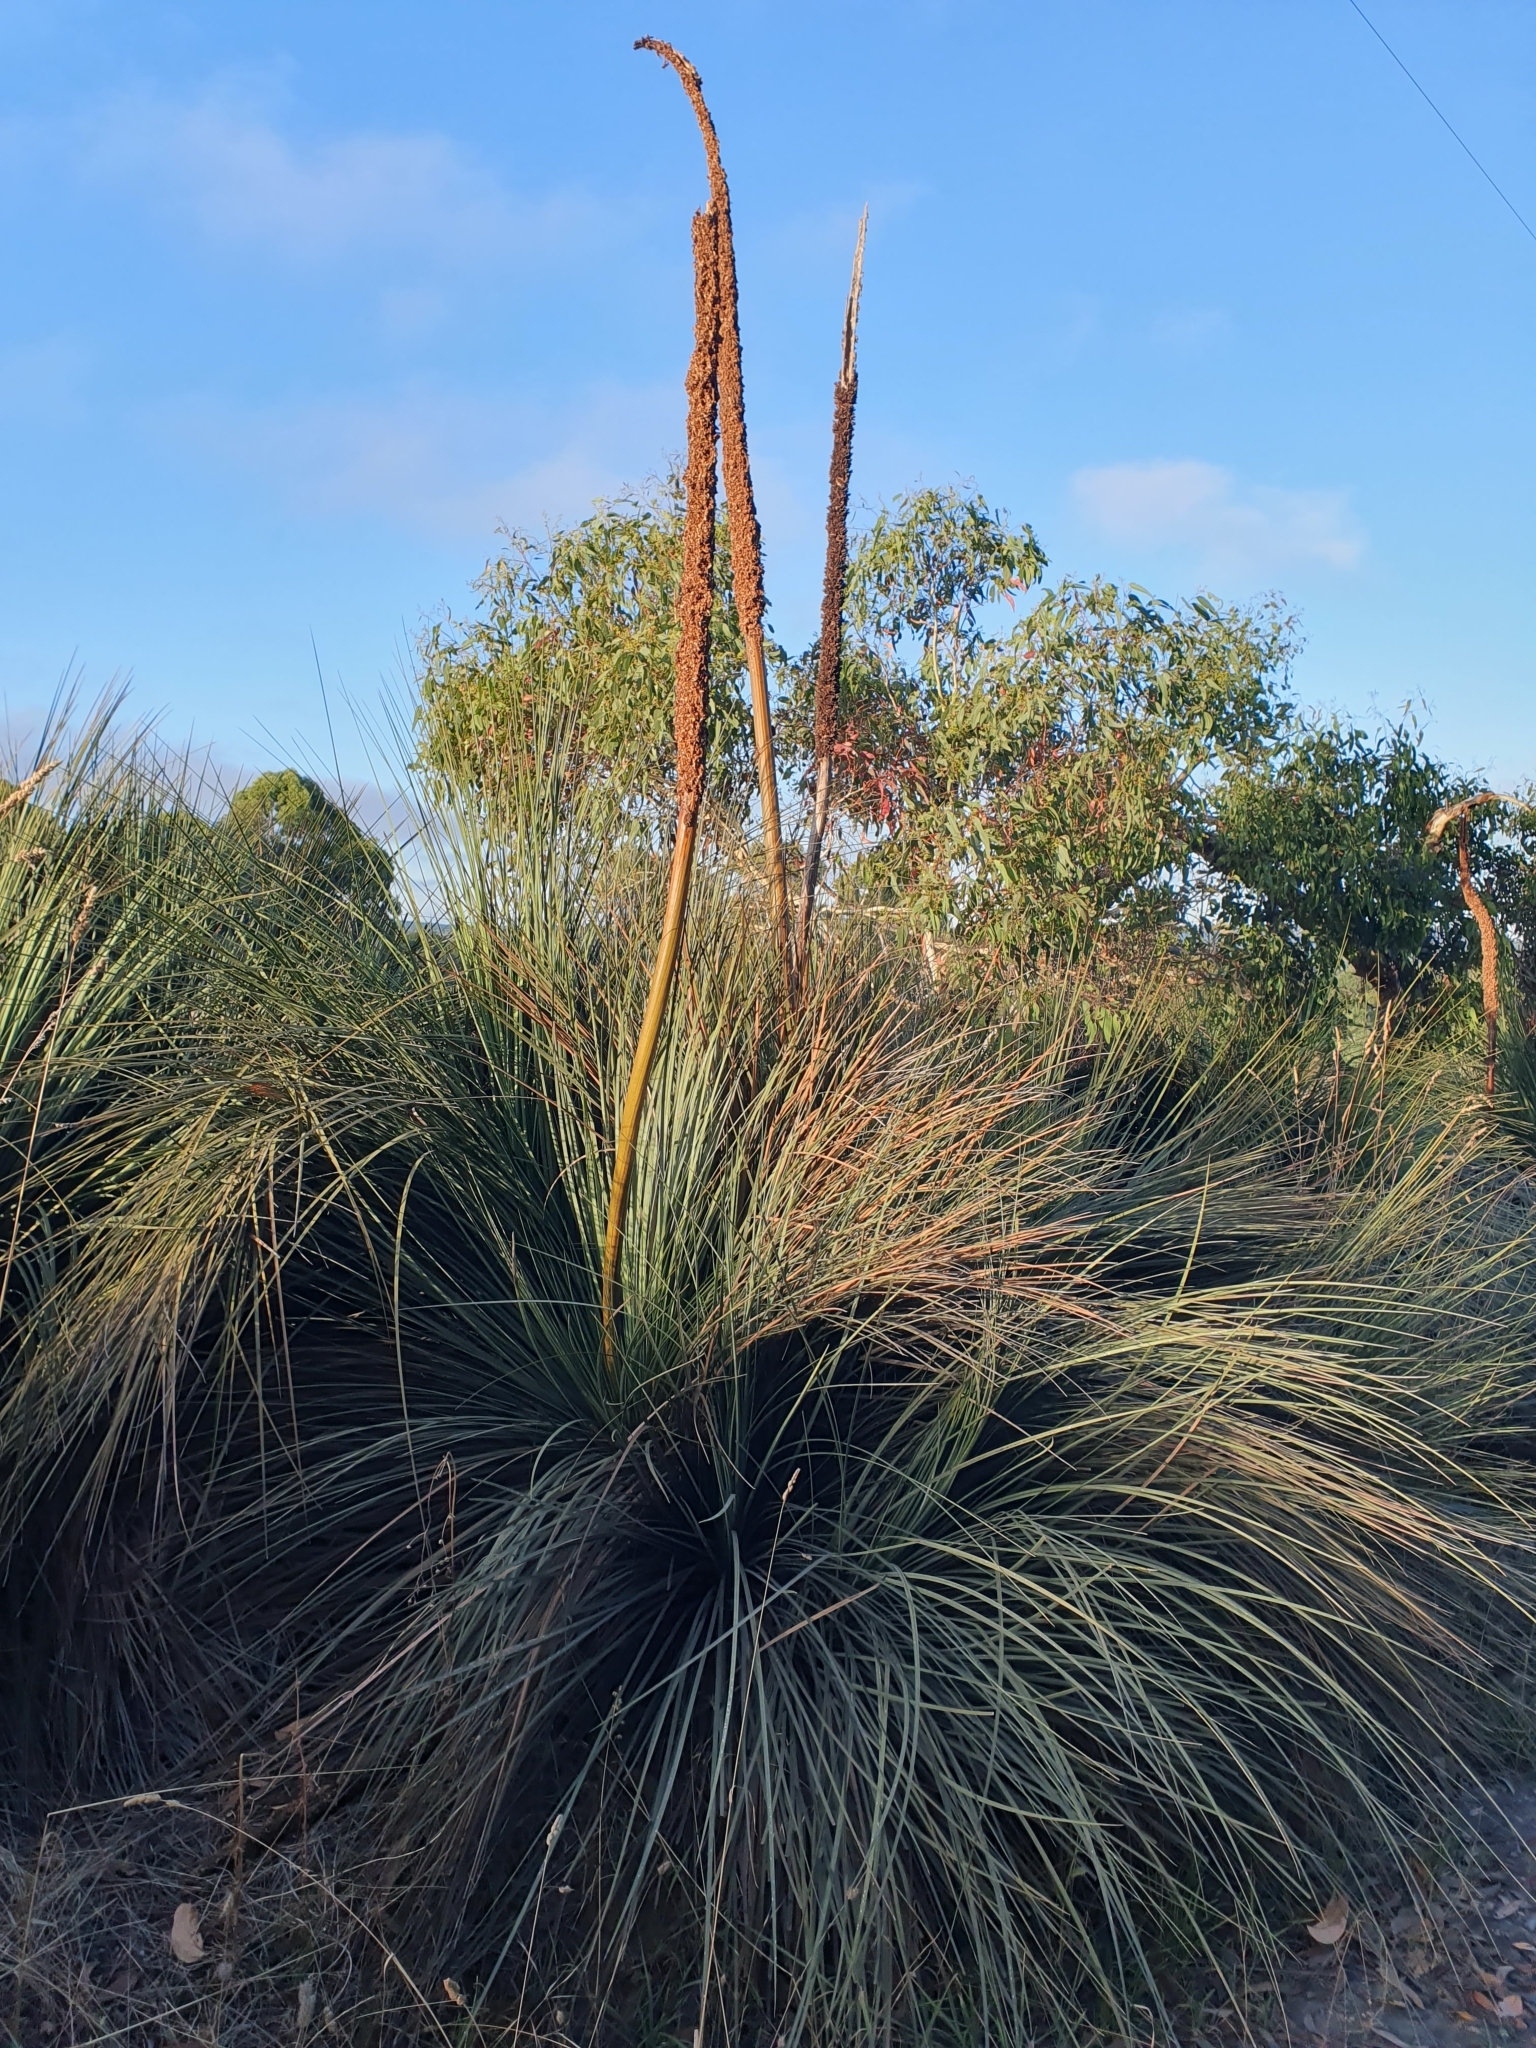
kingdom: Plantae
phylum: Tracheophyta
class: Liliopsida
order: Asparagales
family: Asphodelaceae
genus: Xanthorrhoea
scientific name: Xanthorrhoea semiplana
